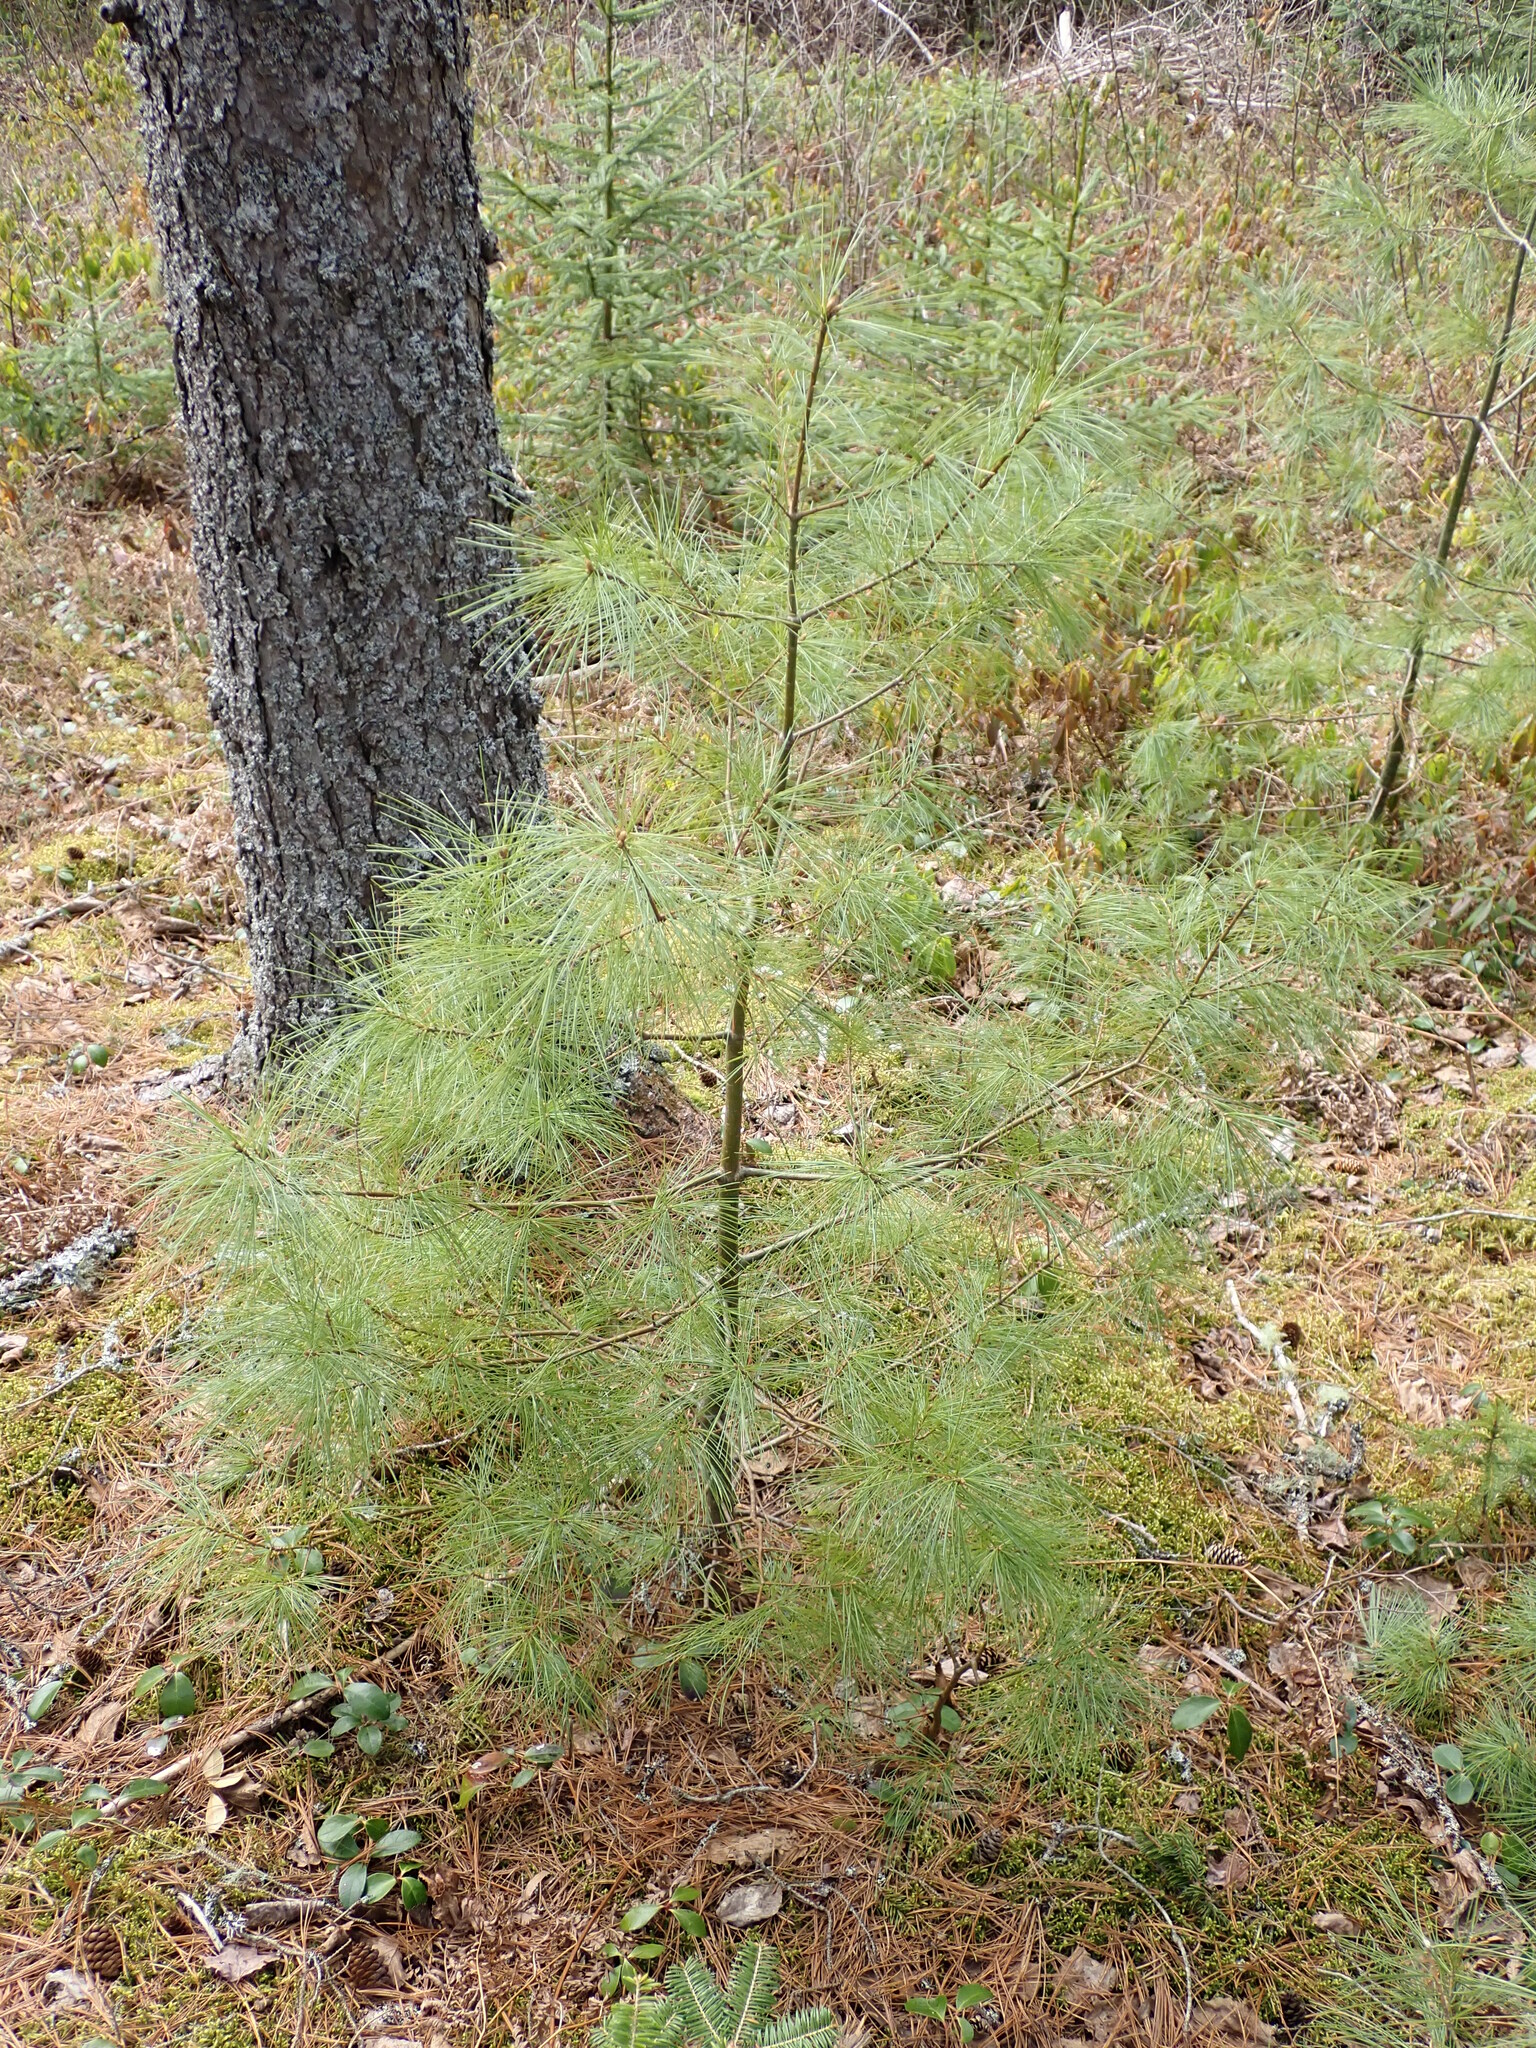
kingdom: Plantae
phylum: Tracheophyta
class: Pinopsida
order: Pinales
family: Pinaceae
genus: Pinus
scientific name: Pinus strobus
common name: Weymouth pine
